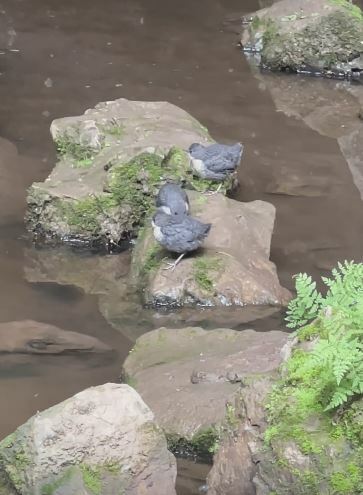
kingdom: Animalia
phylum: Chordata
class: Aves
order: Passeriformes
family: Cinclidae
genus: Cinclus
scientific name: Cinclus cinclus
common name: White-throated dipper
